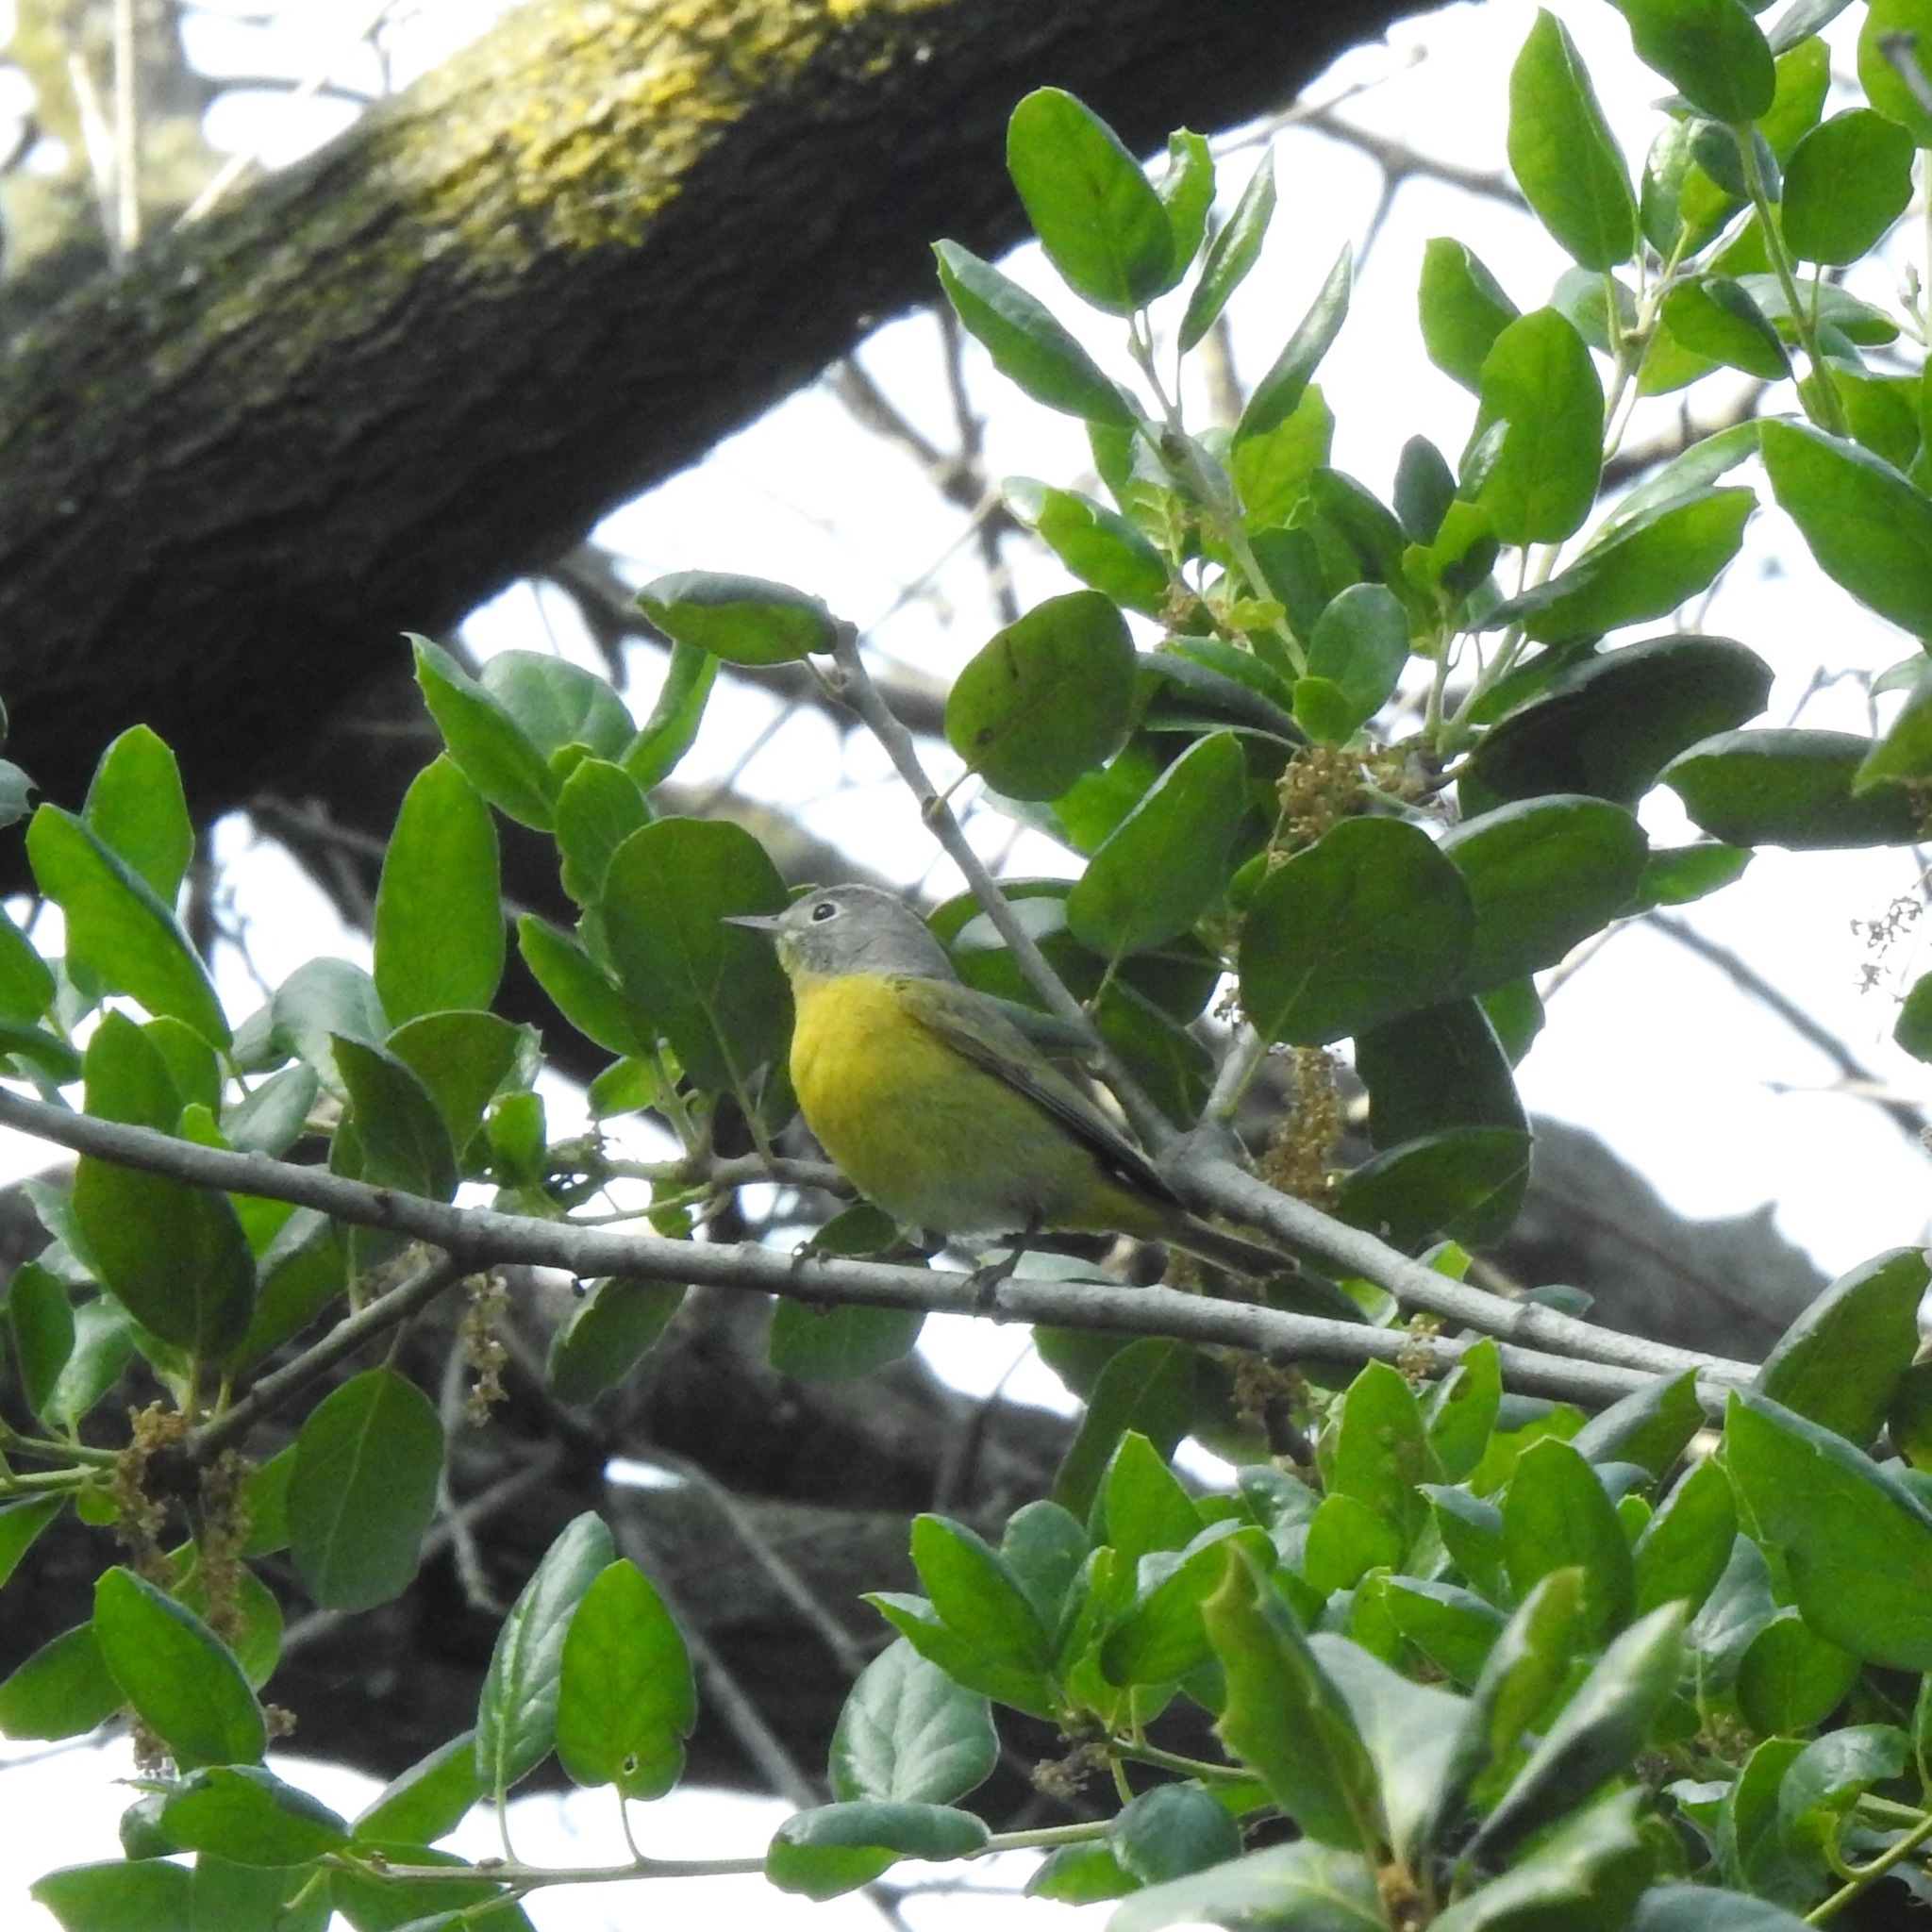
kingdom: Animalia
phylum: Chordata
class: Aves
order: Passeriformes
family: Parulidae
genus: Leiothlypis
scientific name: Leiothlypis ruficapilla
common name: Nashville warbler
